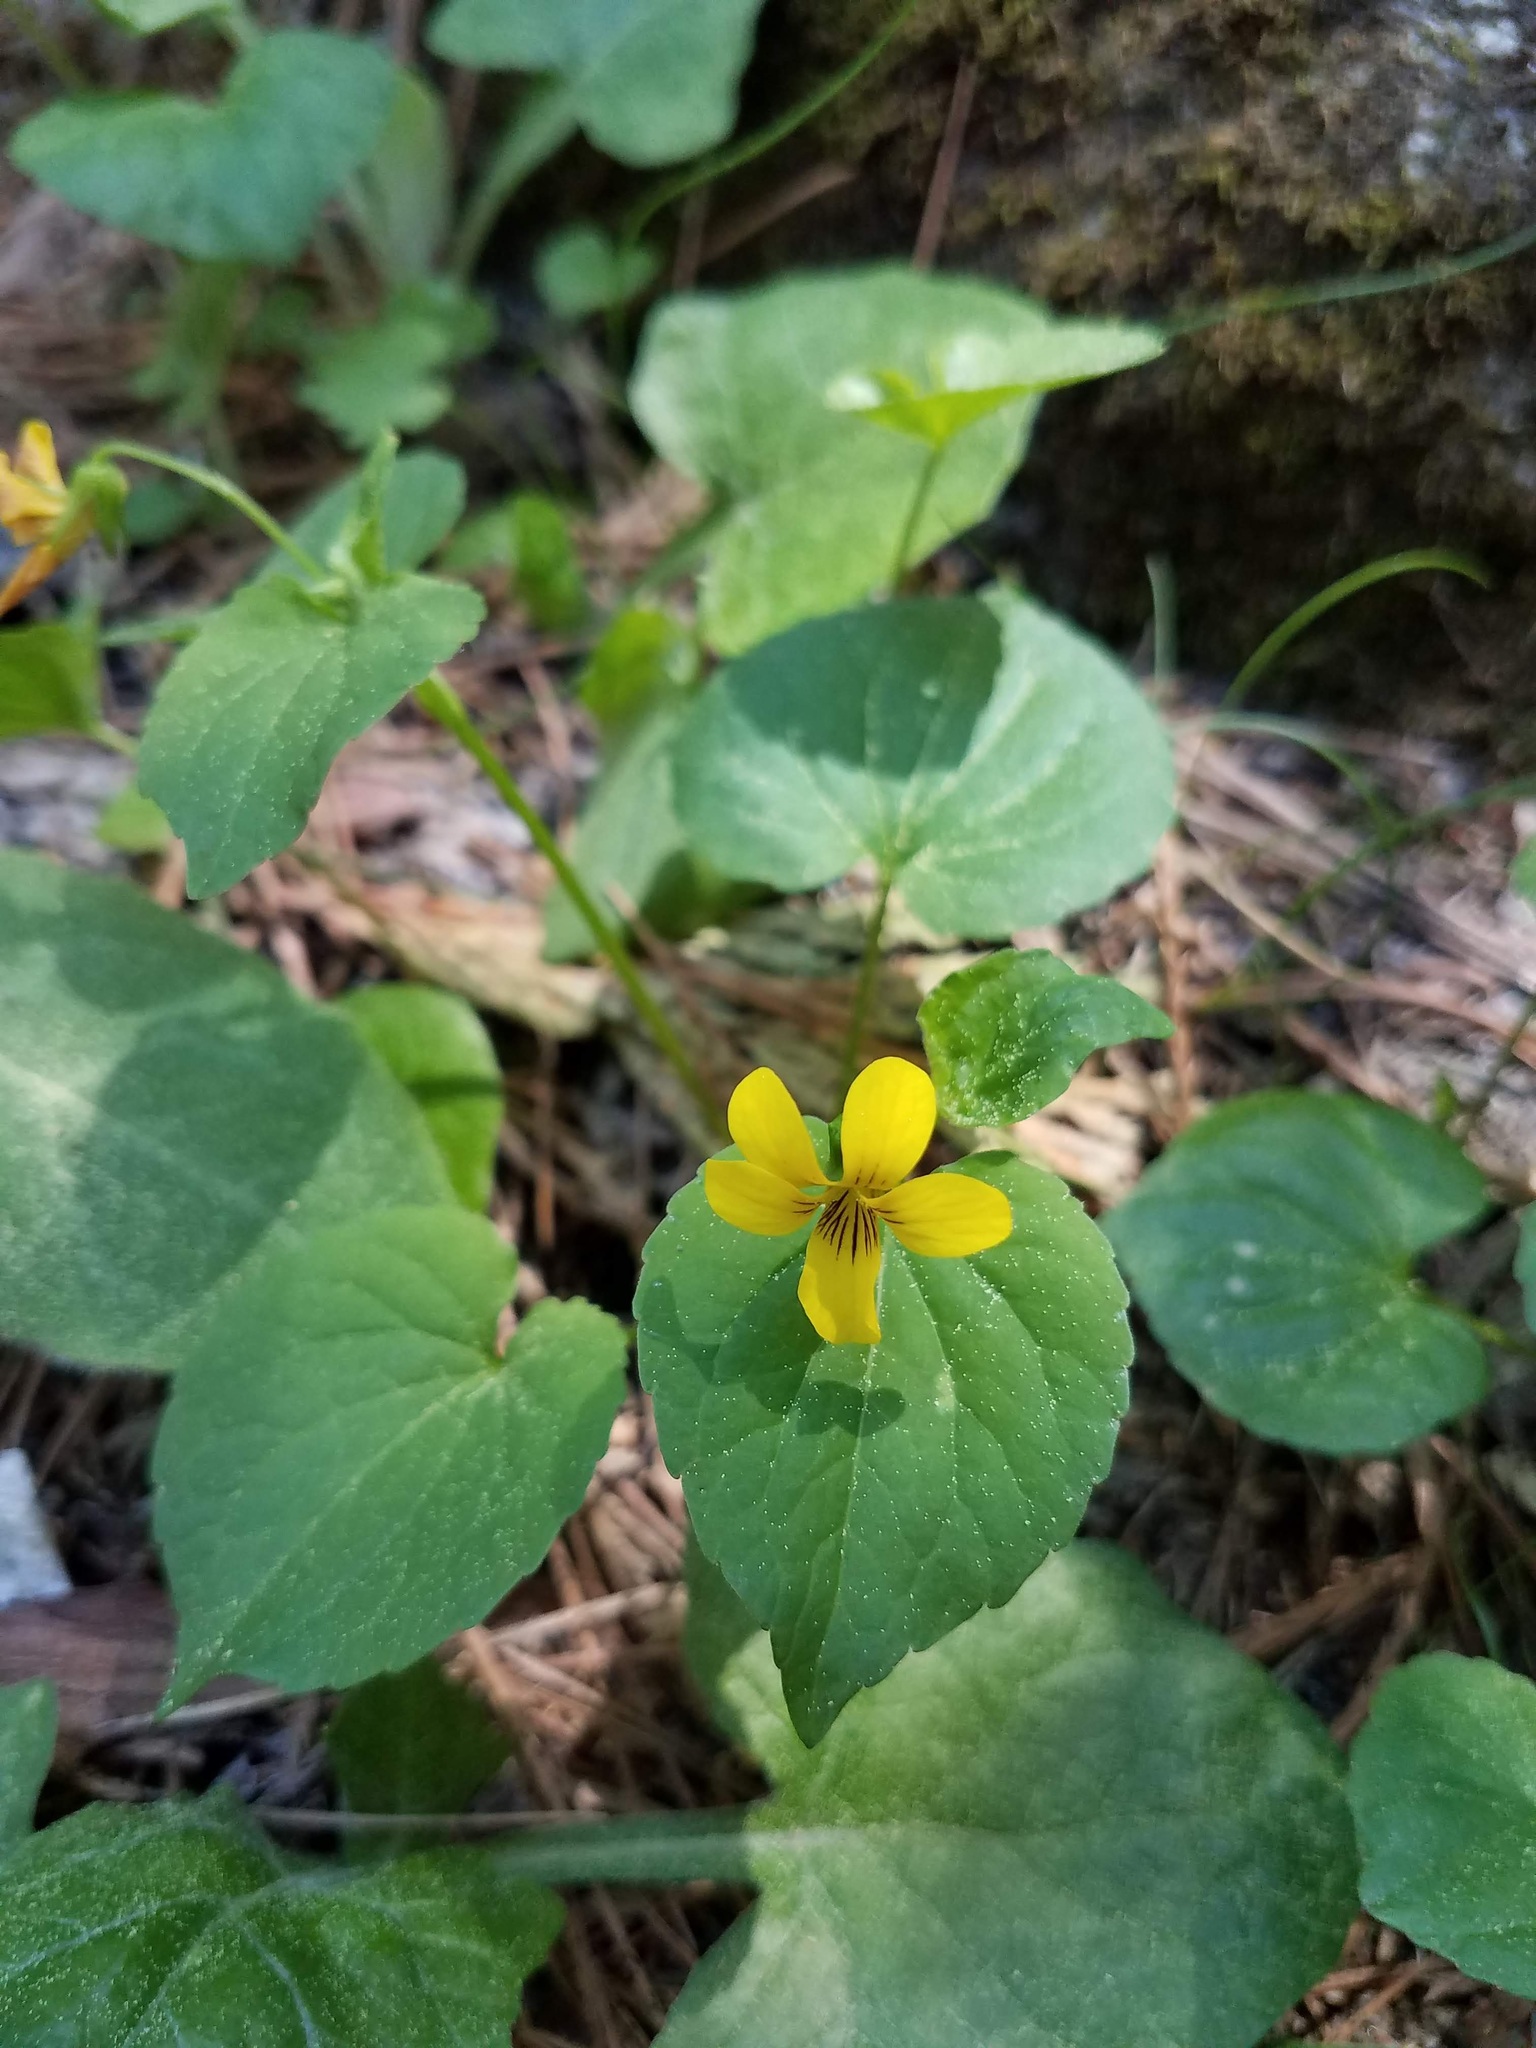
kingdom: Plantae
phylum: Tracheophyta
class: Magnoliopsida
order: Malpighiales
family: Violaceae
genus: Viola
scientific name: Viola glabella
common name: Stream violet
